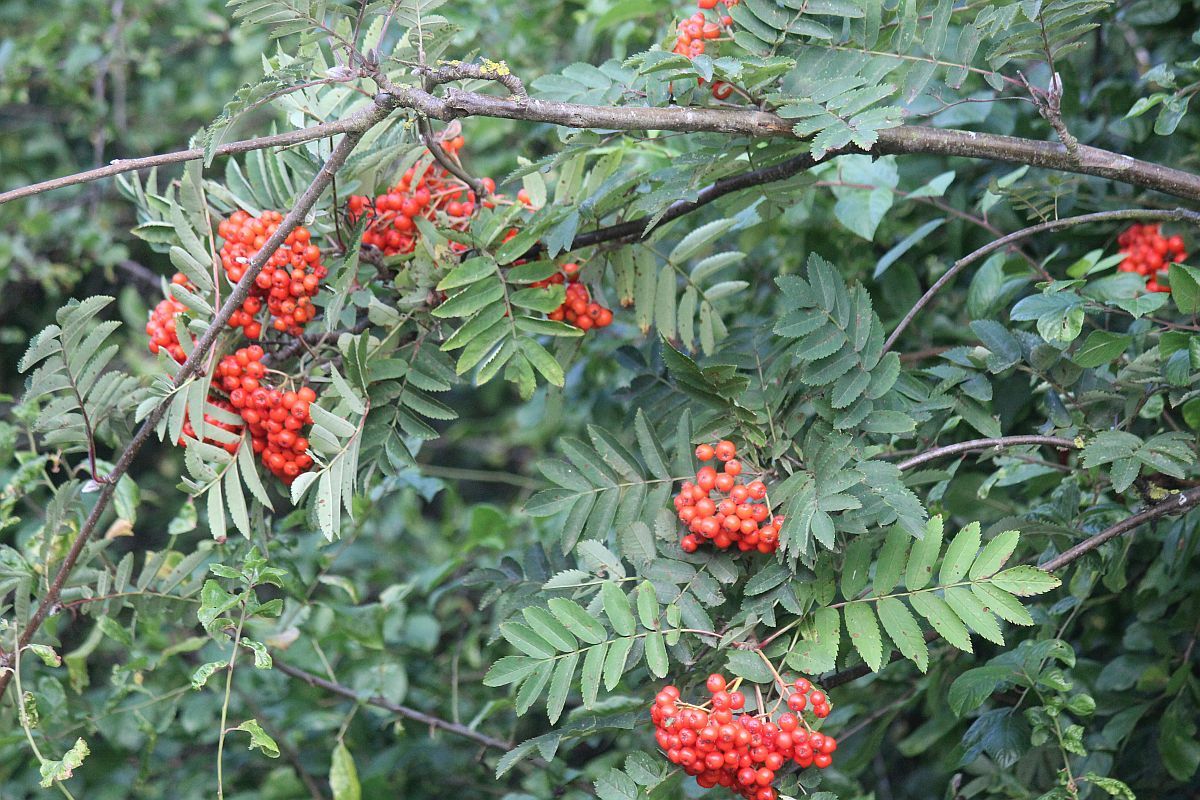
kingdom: Plantae
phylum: Tracheophyta
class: Magnoliopsida
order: Rosales
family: Rosaceae
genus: Sorbus
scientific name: Sorbus aucuparia
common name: Rowan
